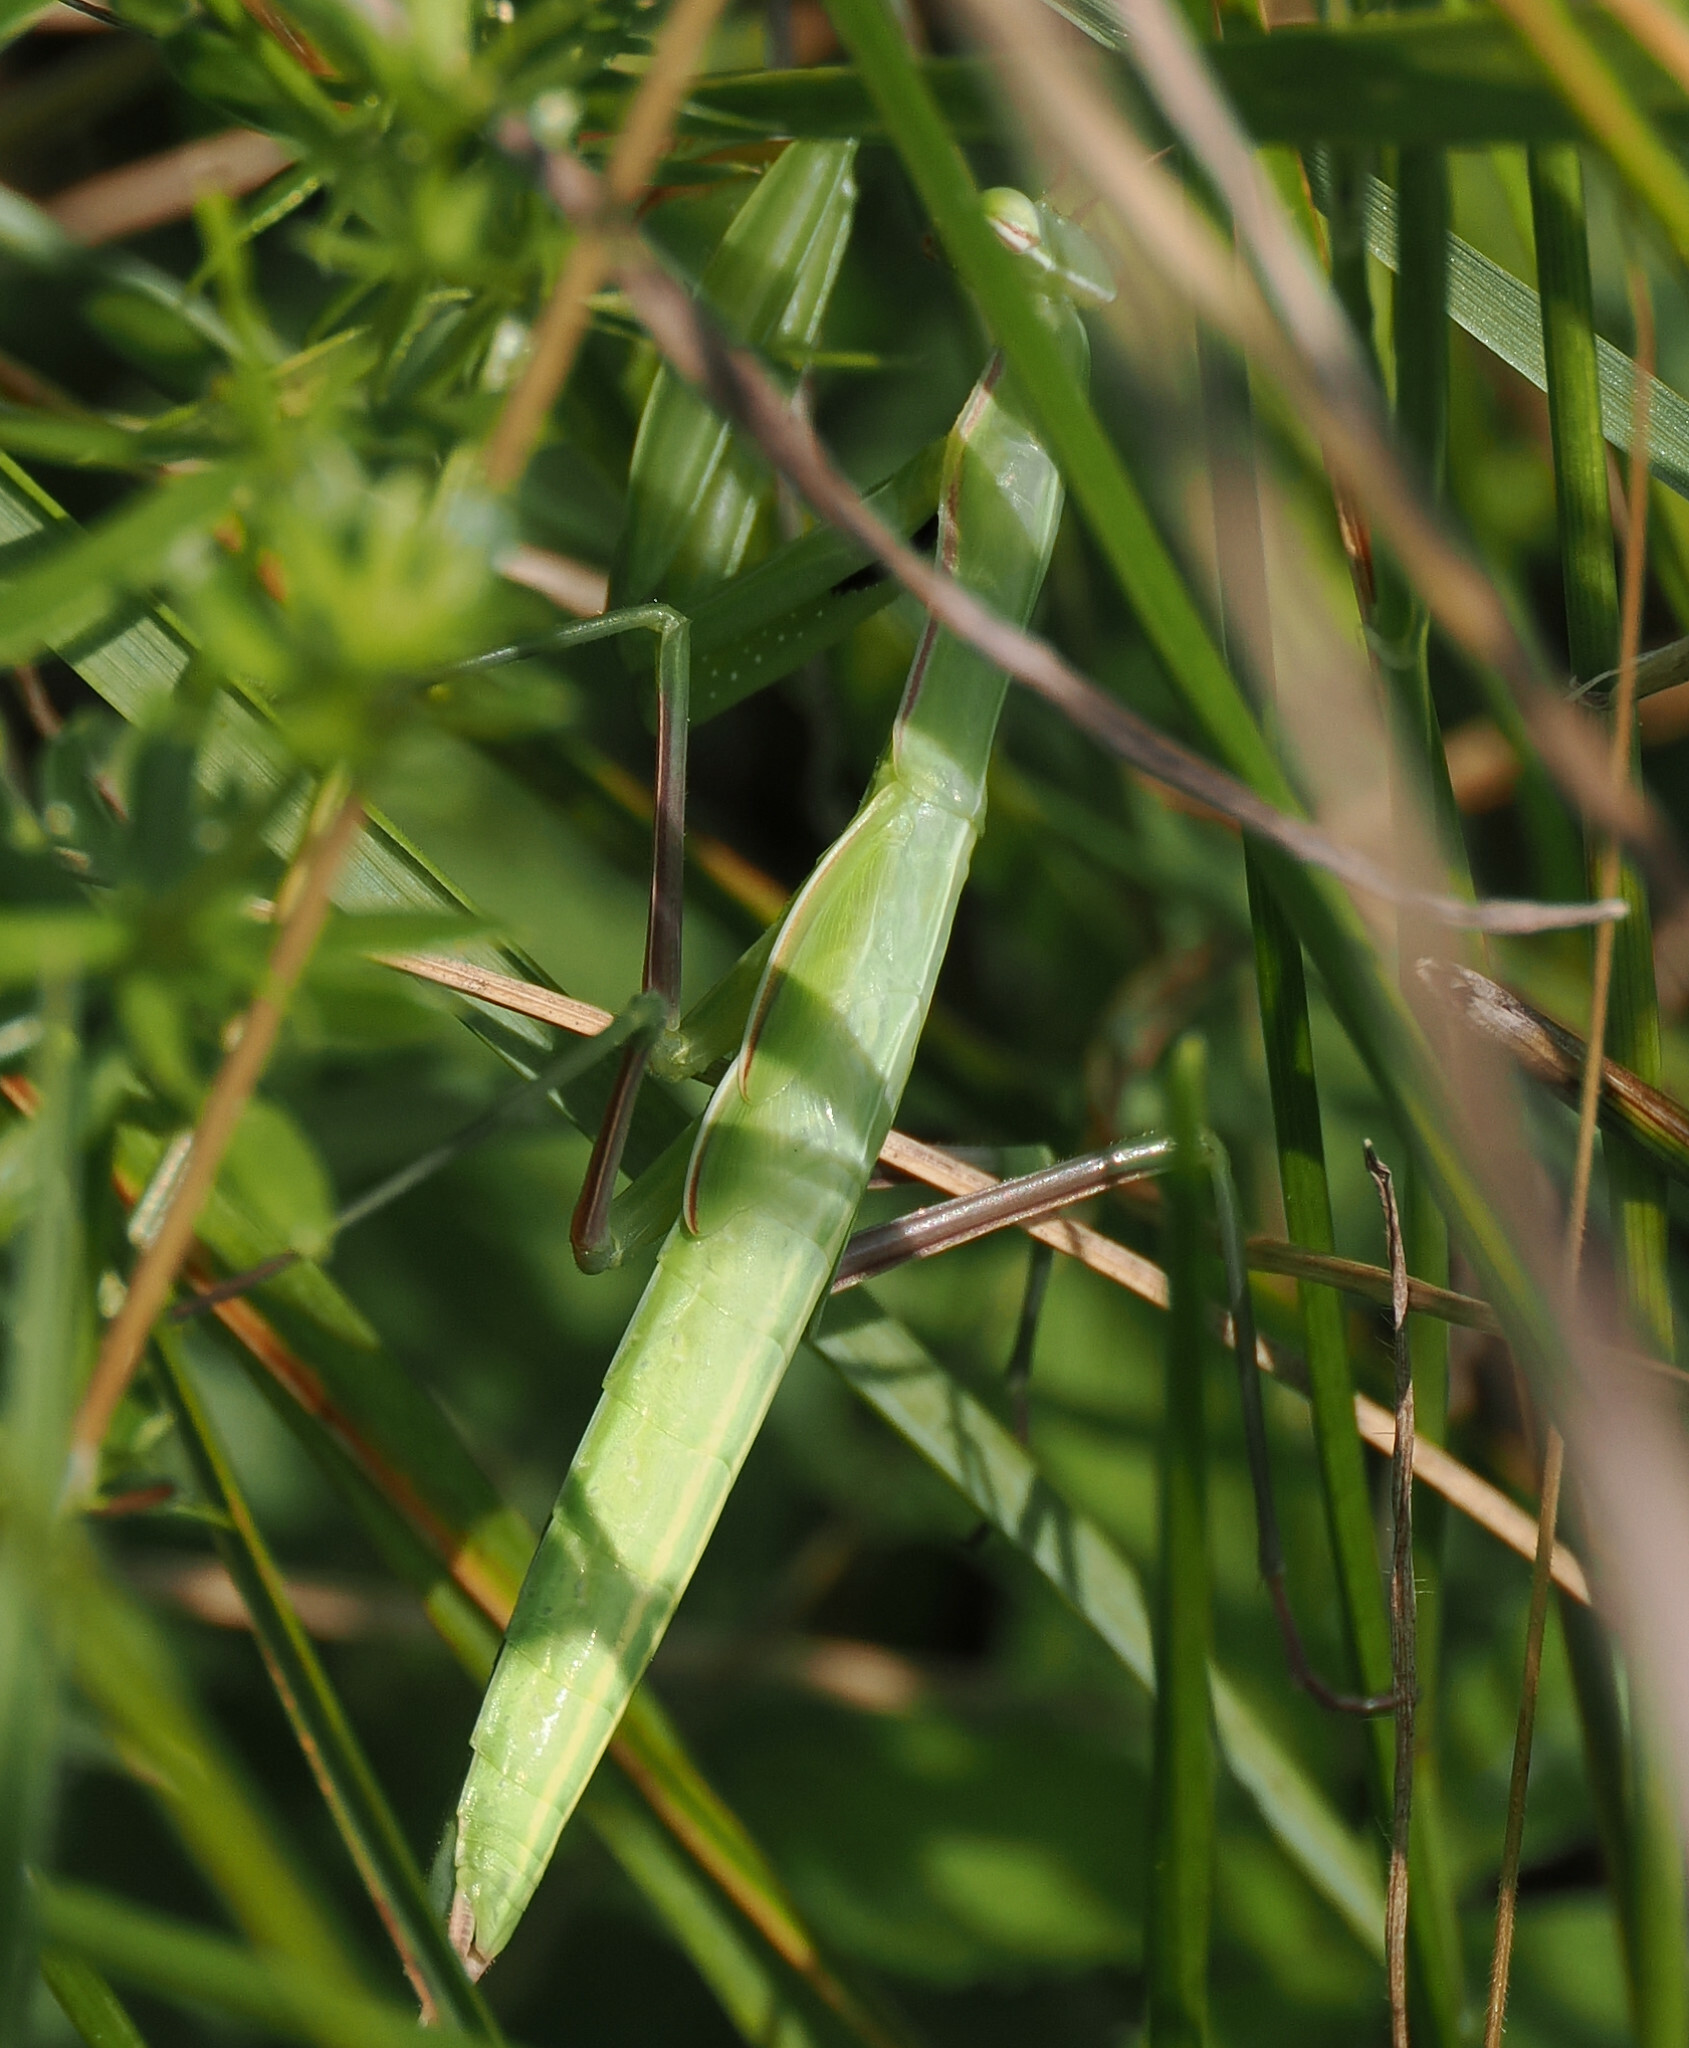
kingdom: Animalia
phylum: Arthropoda
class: Insecta
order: Mantodea
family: Mantidae
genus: Mantis
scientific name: Mantis religiosa
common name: Praying mantis
